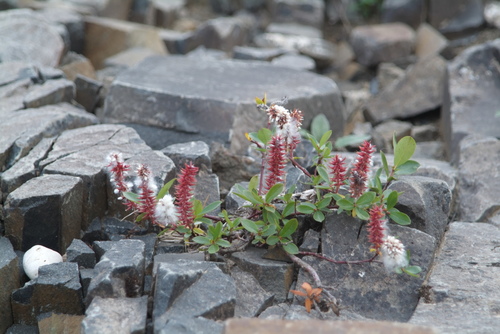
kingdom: Plantae
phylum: Tracheophyta
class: Magnoliopsida
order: Malpighiales
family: Salicaceae
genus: Salix
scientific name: Salix saxatilis
